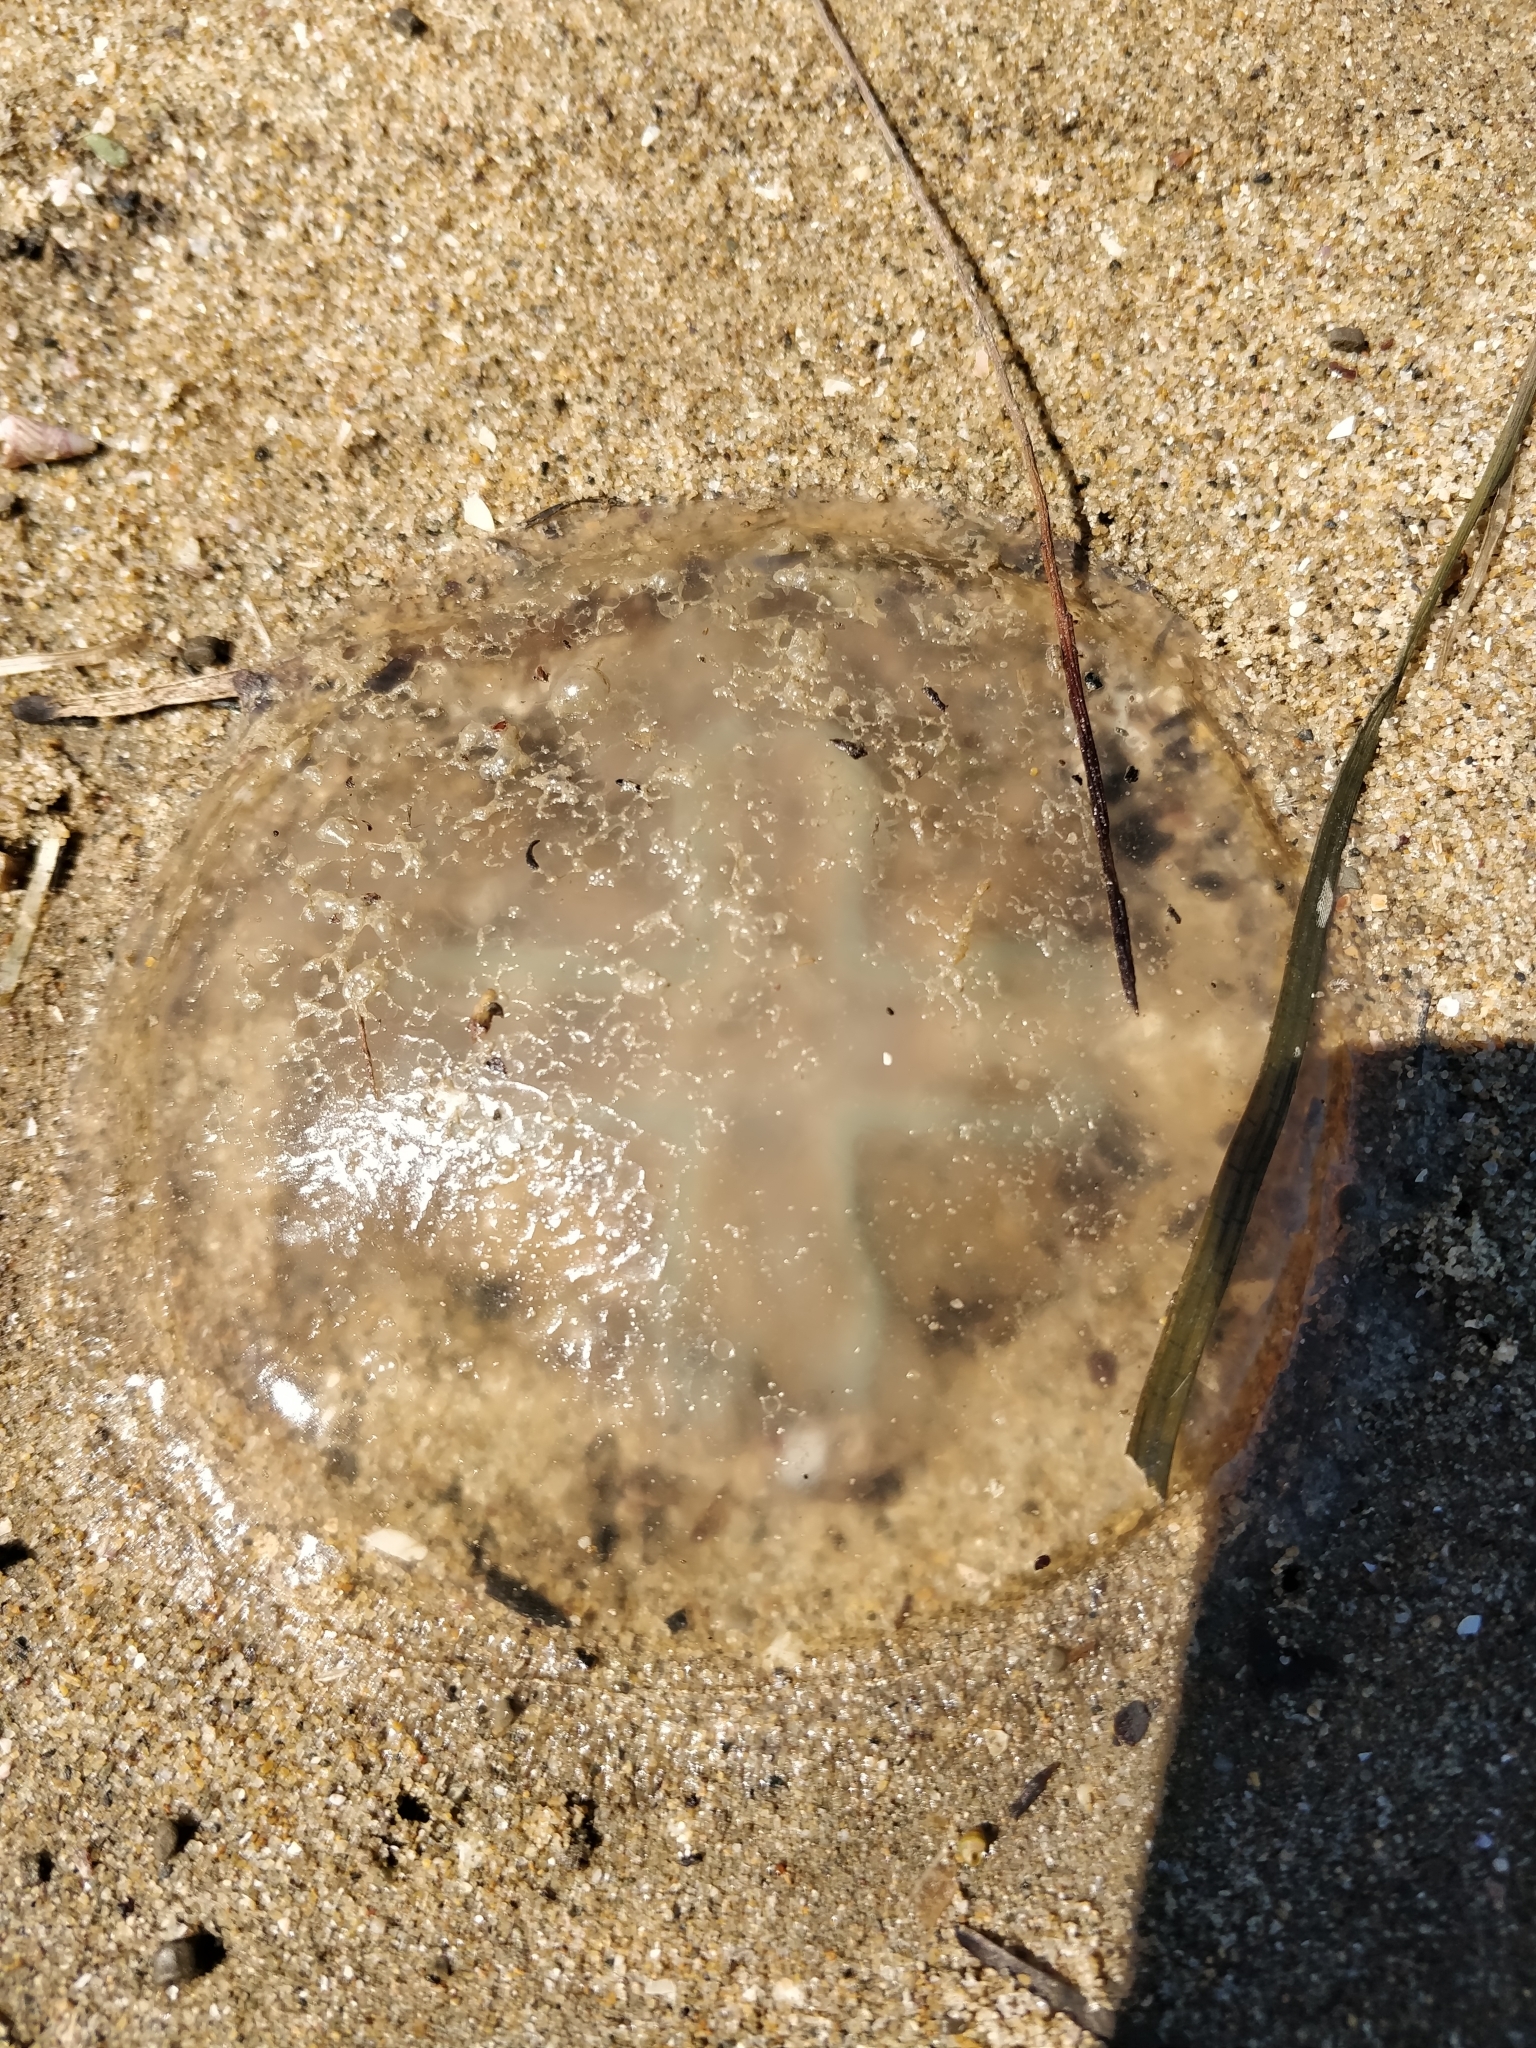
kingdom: Animalia
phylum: Cnidaria
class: Scyphozoa
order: Rhizostomeae
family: Catostylidae
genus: Catostylus
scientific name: Catostylus mosaicus
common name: Blue blubber
